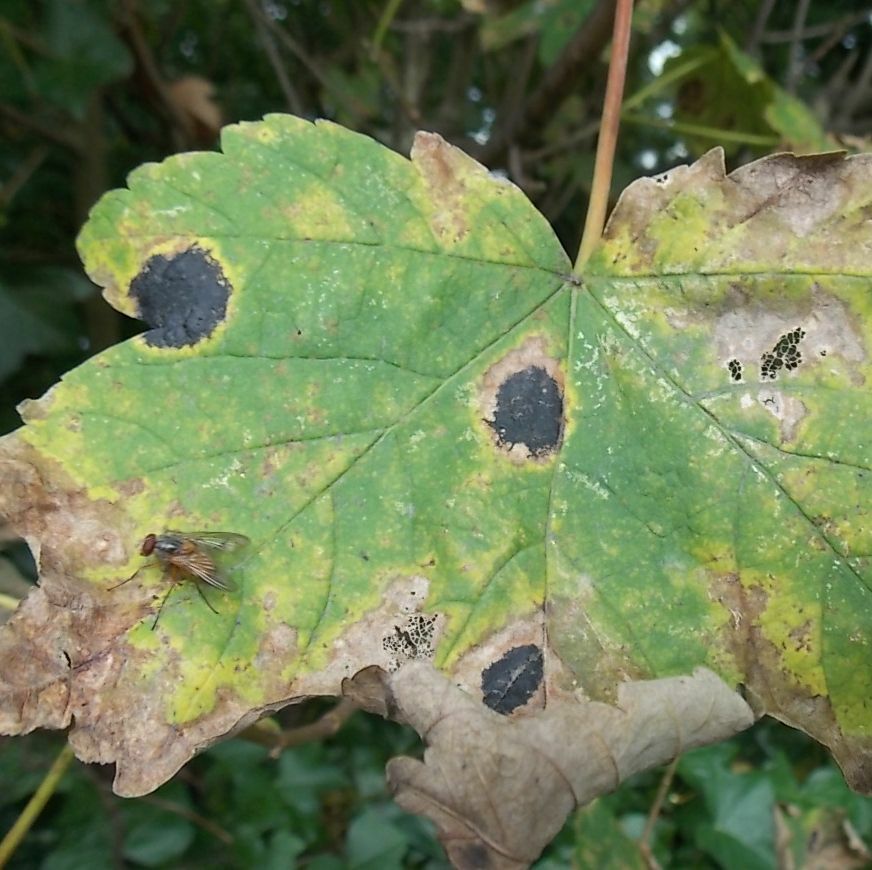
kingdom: Fungi
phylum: Ascomycota
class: Leotiomycetes
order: Rhytismatales
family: Rhytismataceae
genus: Rhytisma
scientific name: Rhytisma acerinum
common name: European tar spot
